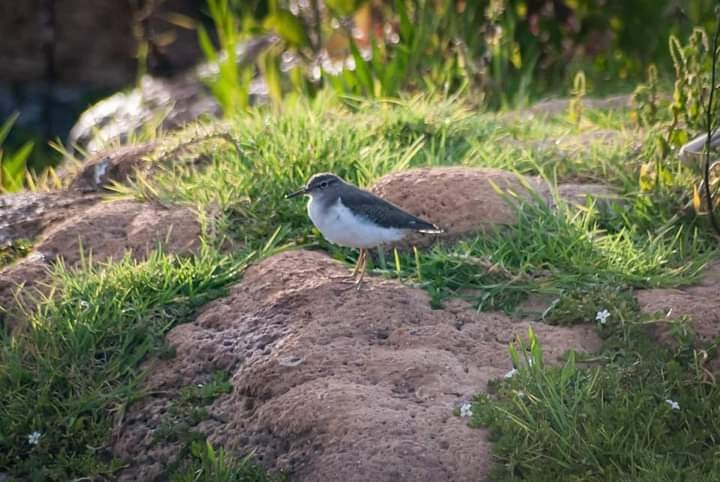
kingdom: Animalia
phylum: Chordata
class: Aves
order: Charadriiformes
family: Scolopacidae
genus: Actitis
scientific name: Actitis macularius
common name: Spotted sandpiper
